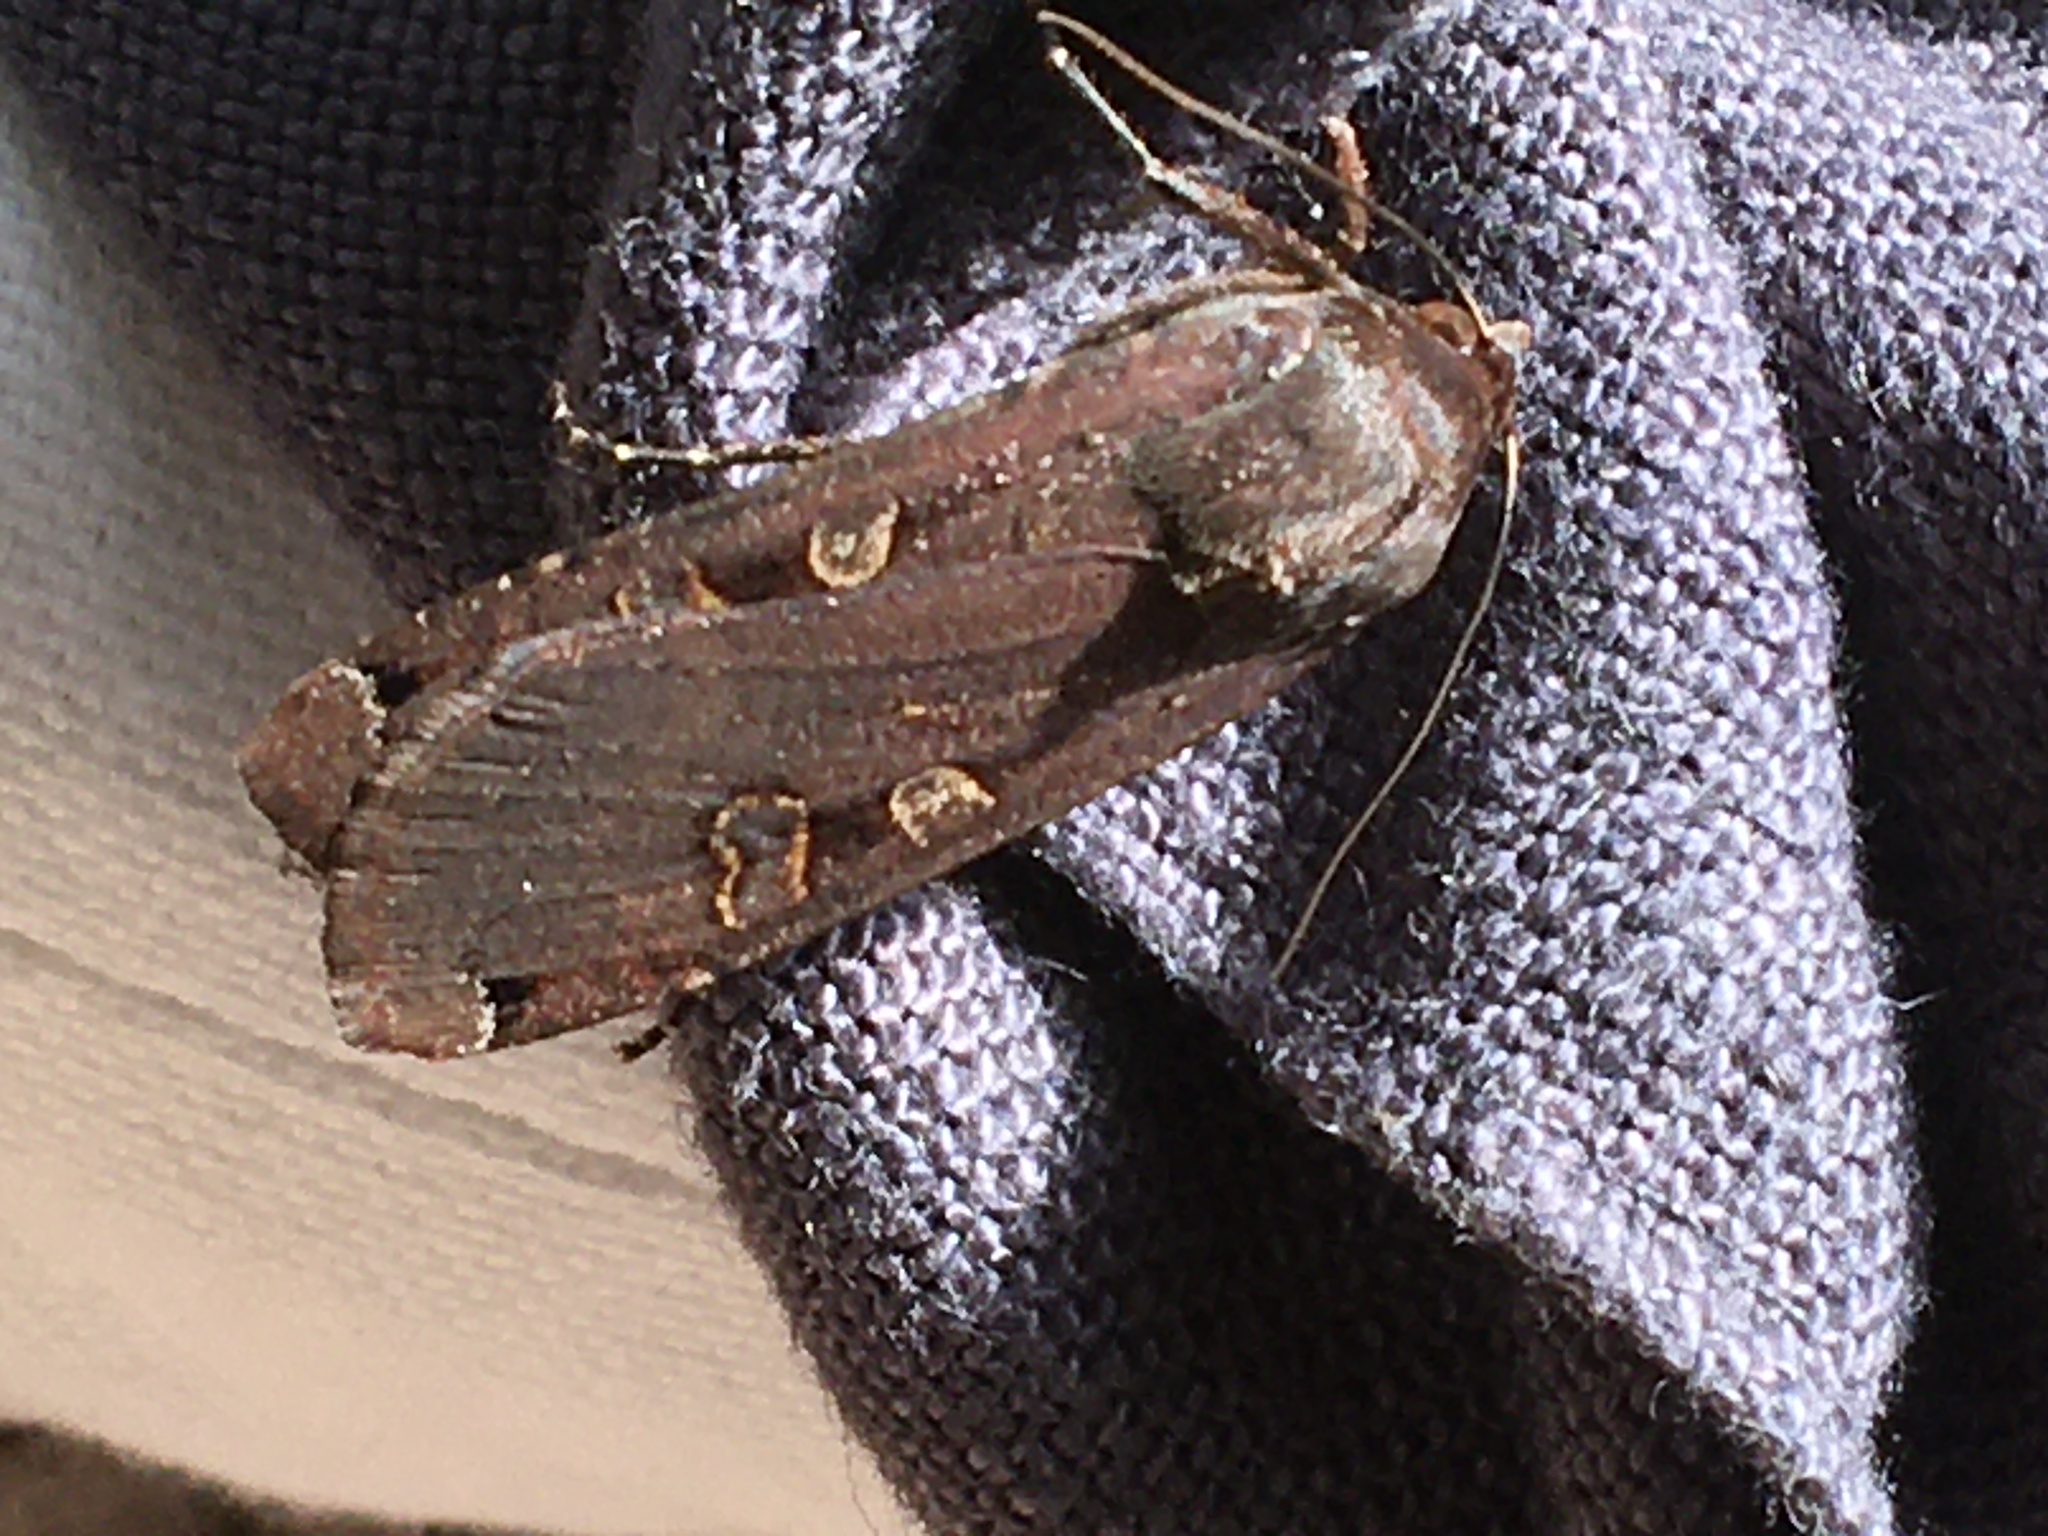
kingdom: Animalia
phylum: Arthropoda
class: Insecta
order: Lepidoptera
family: Noctuidae
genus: Noctua
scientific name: Noctua pronuba
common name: Large yellow underwing
